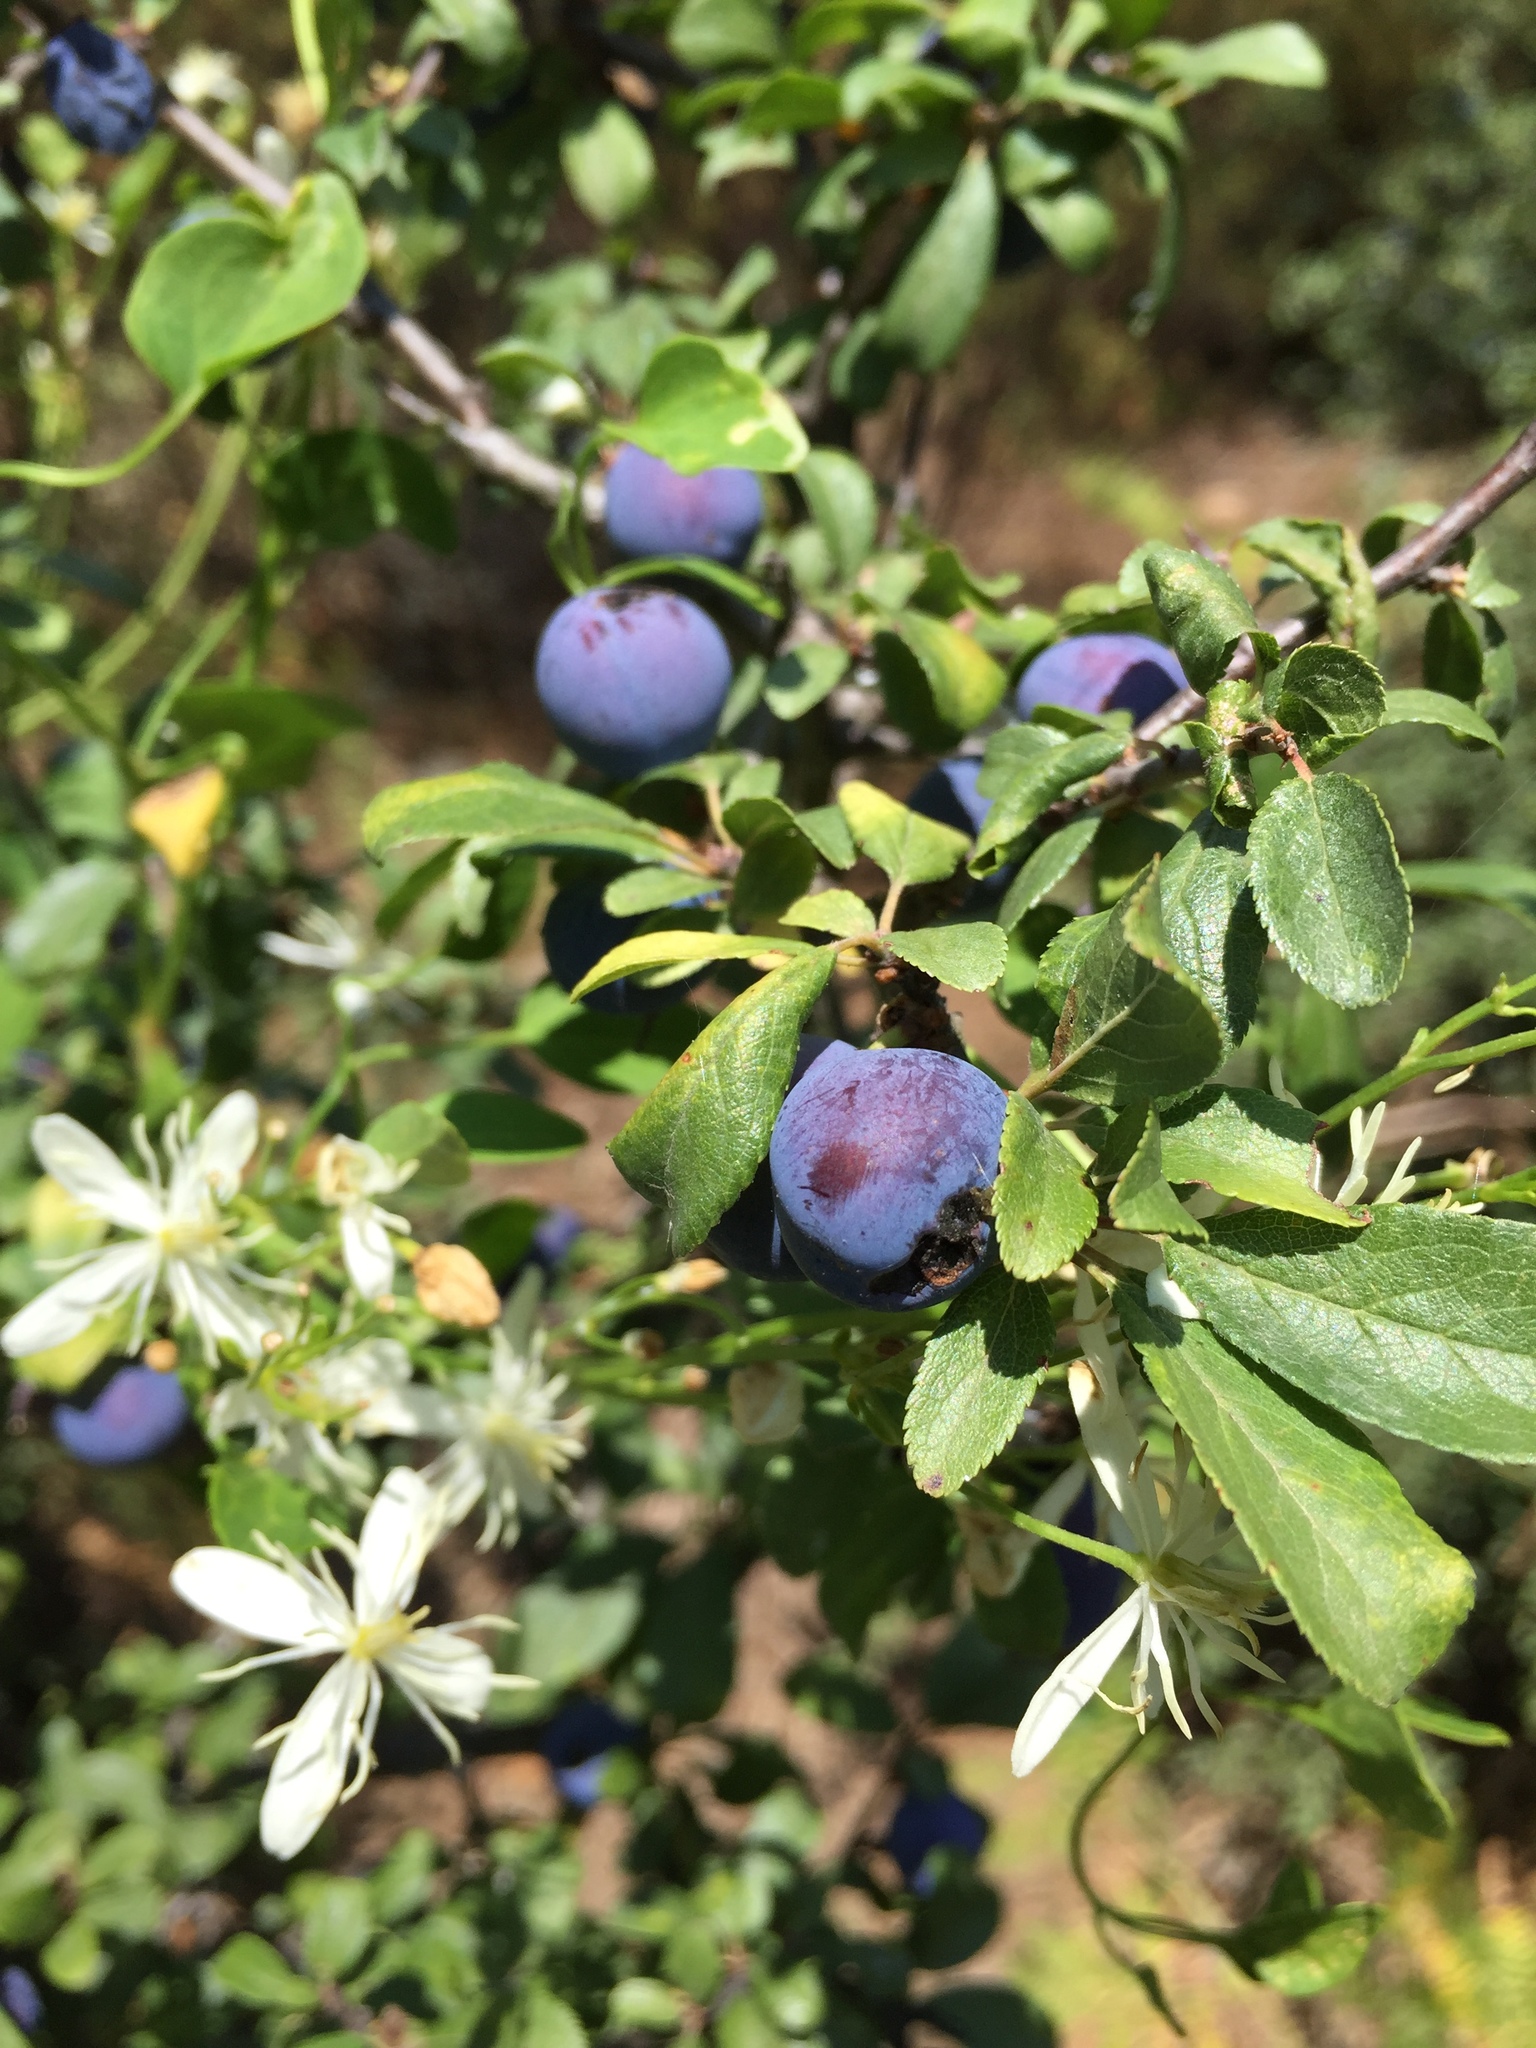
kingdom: Plantae
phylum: Tracheophyta
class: Magnoliopsida
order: Rosales
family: Rosaceae
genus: Prunus
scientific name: Prunus spinosa
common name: Blackthorn
